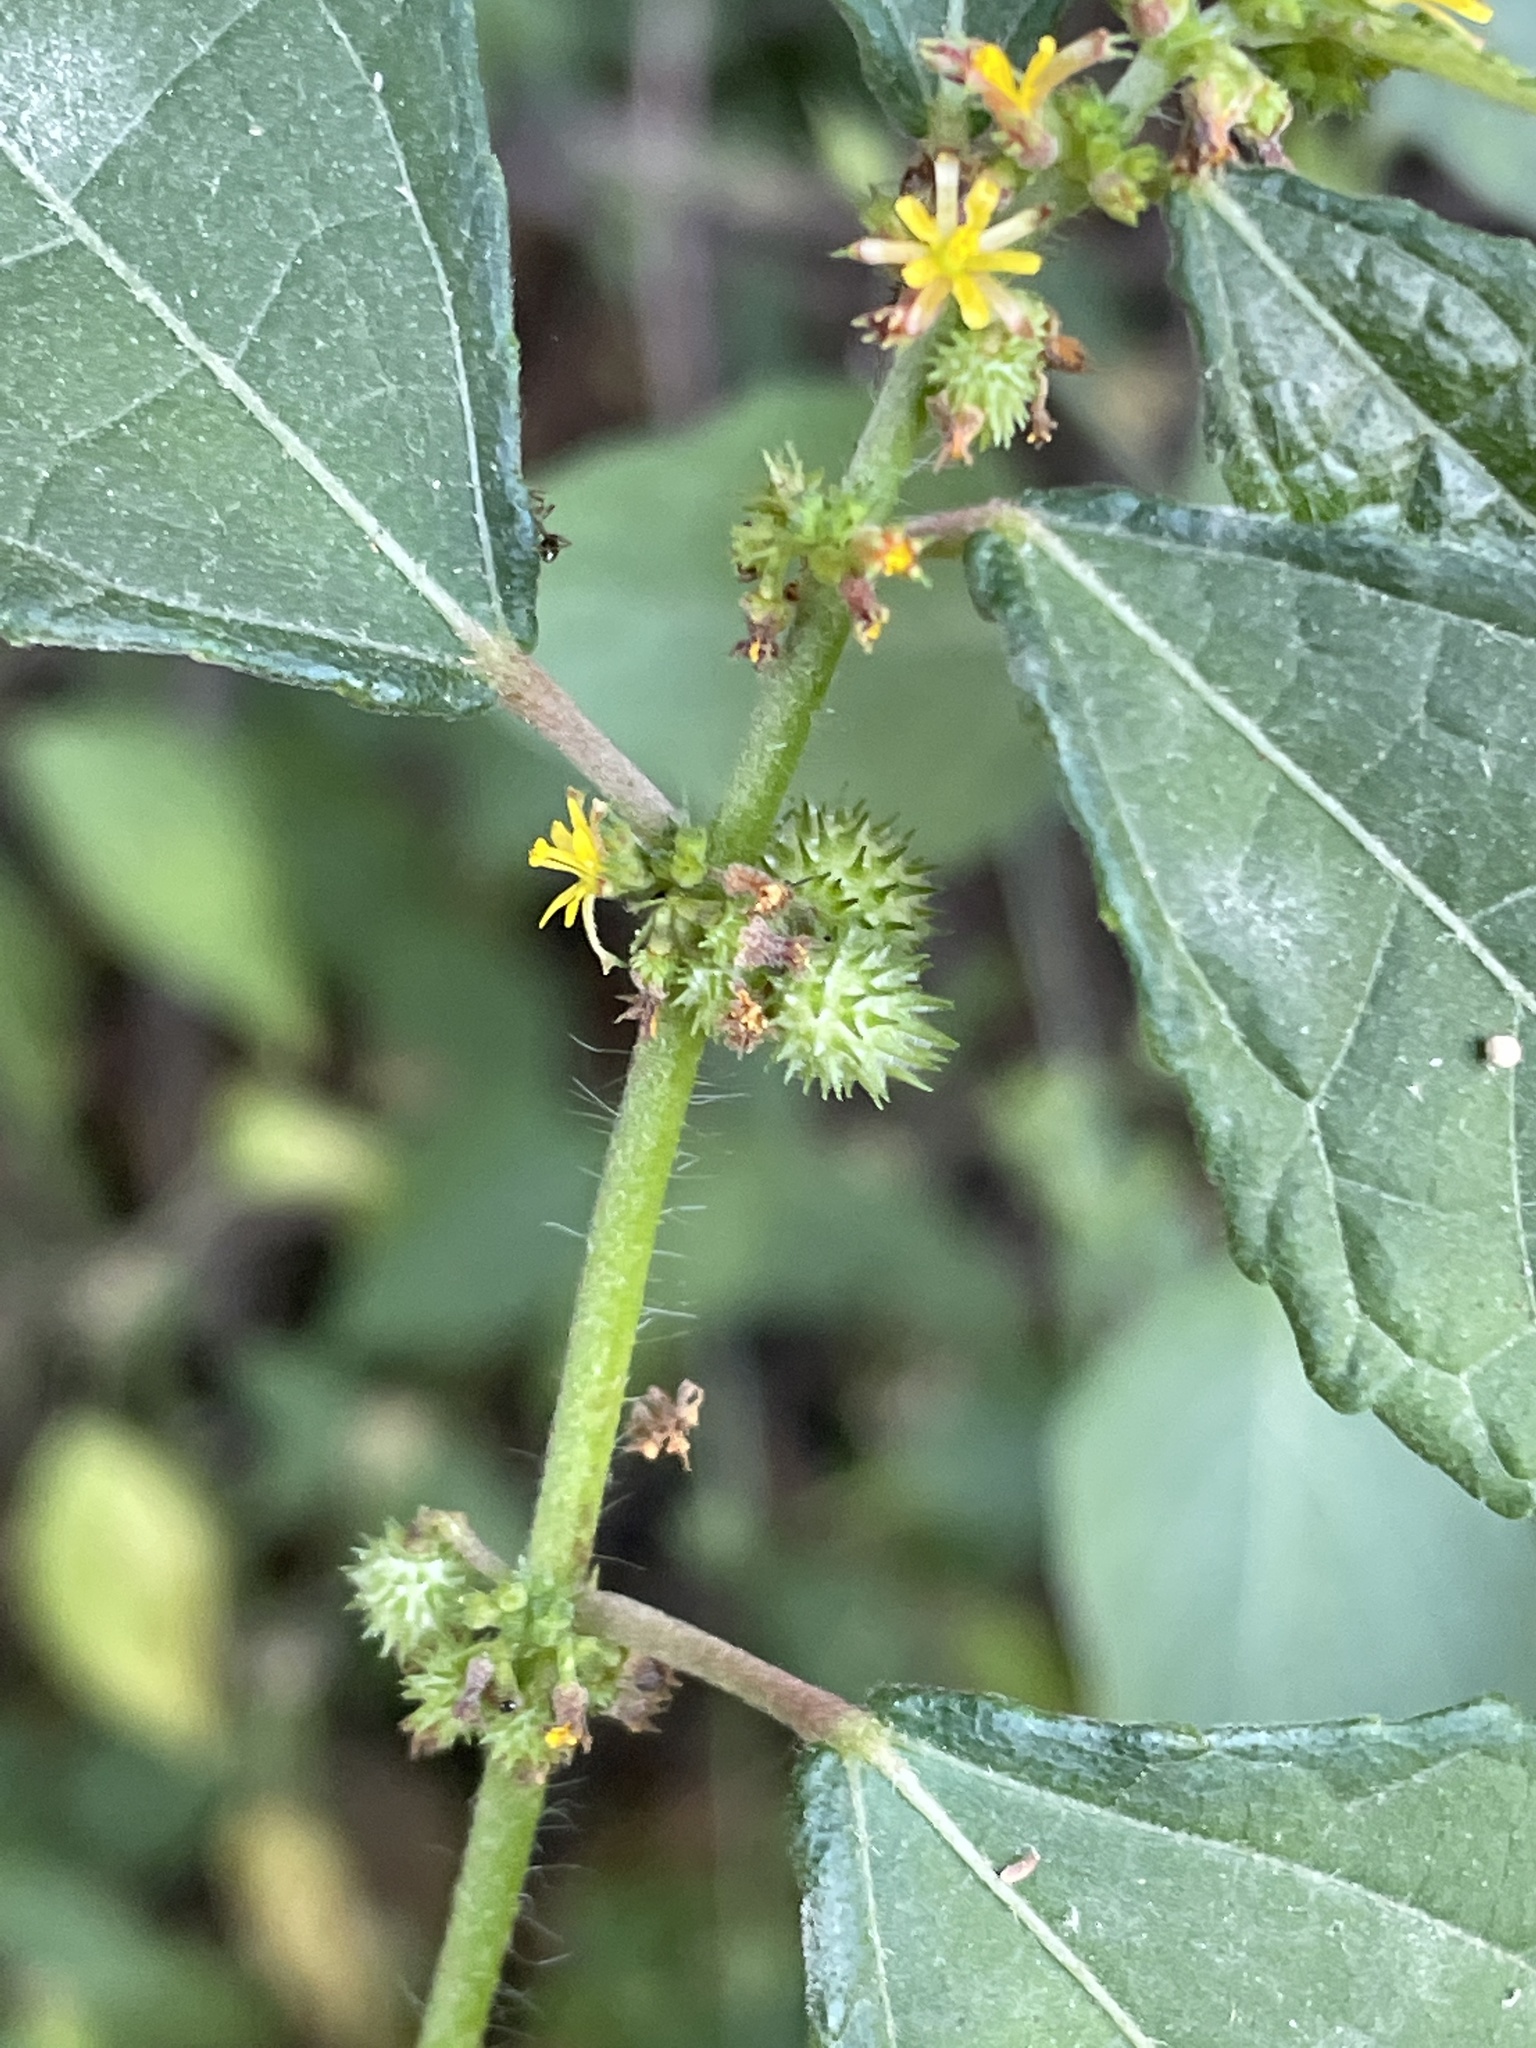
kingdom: Plantae
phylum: Tracheophyta
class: Magnoliopsida
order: Malvales
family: Malvaceae
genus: Triumfetta
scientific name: Triumfetta pentandra
